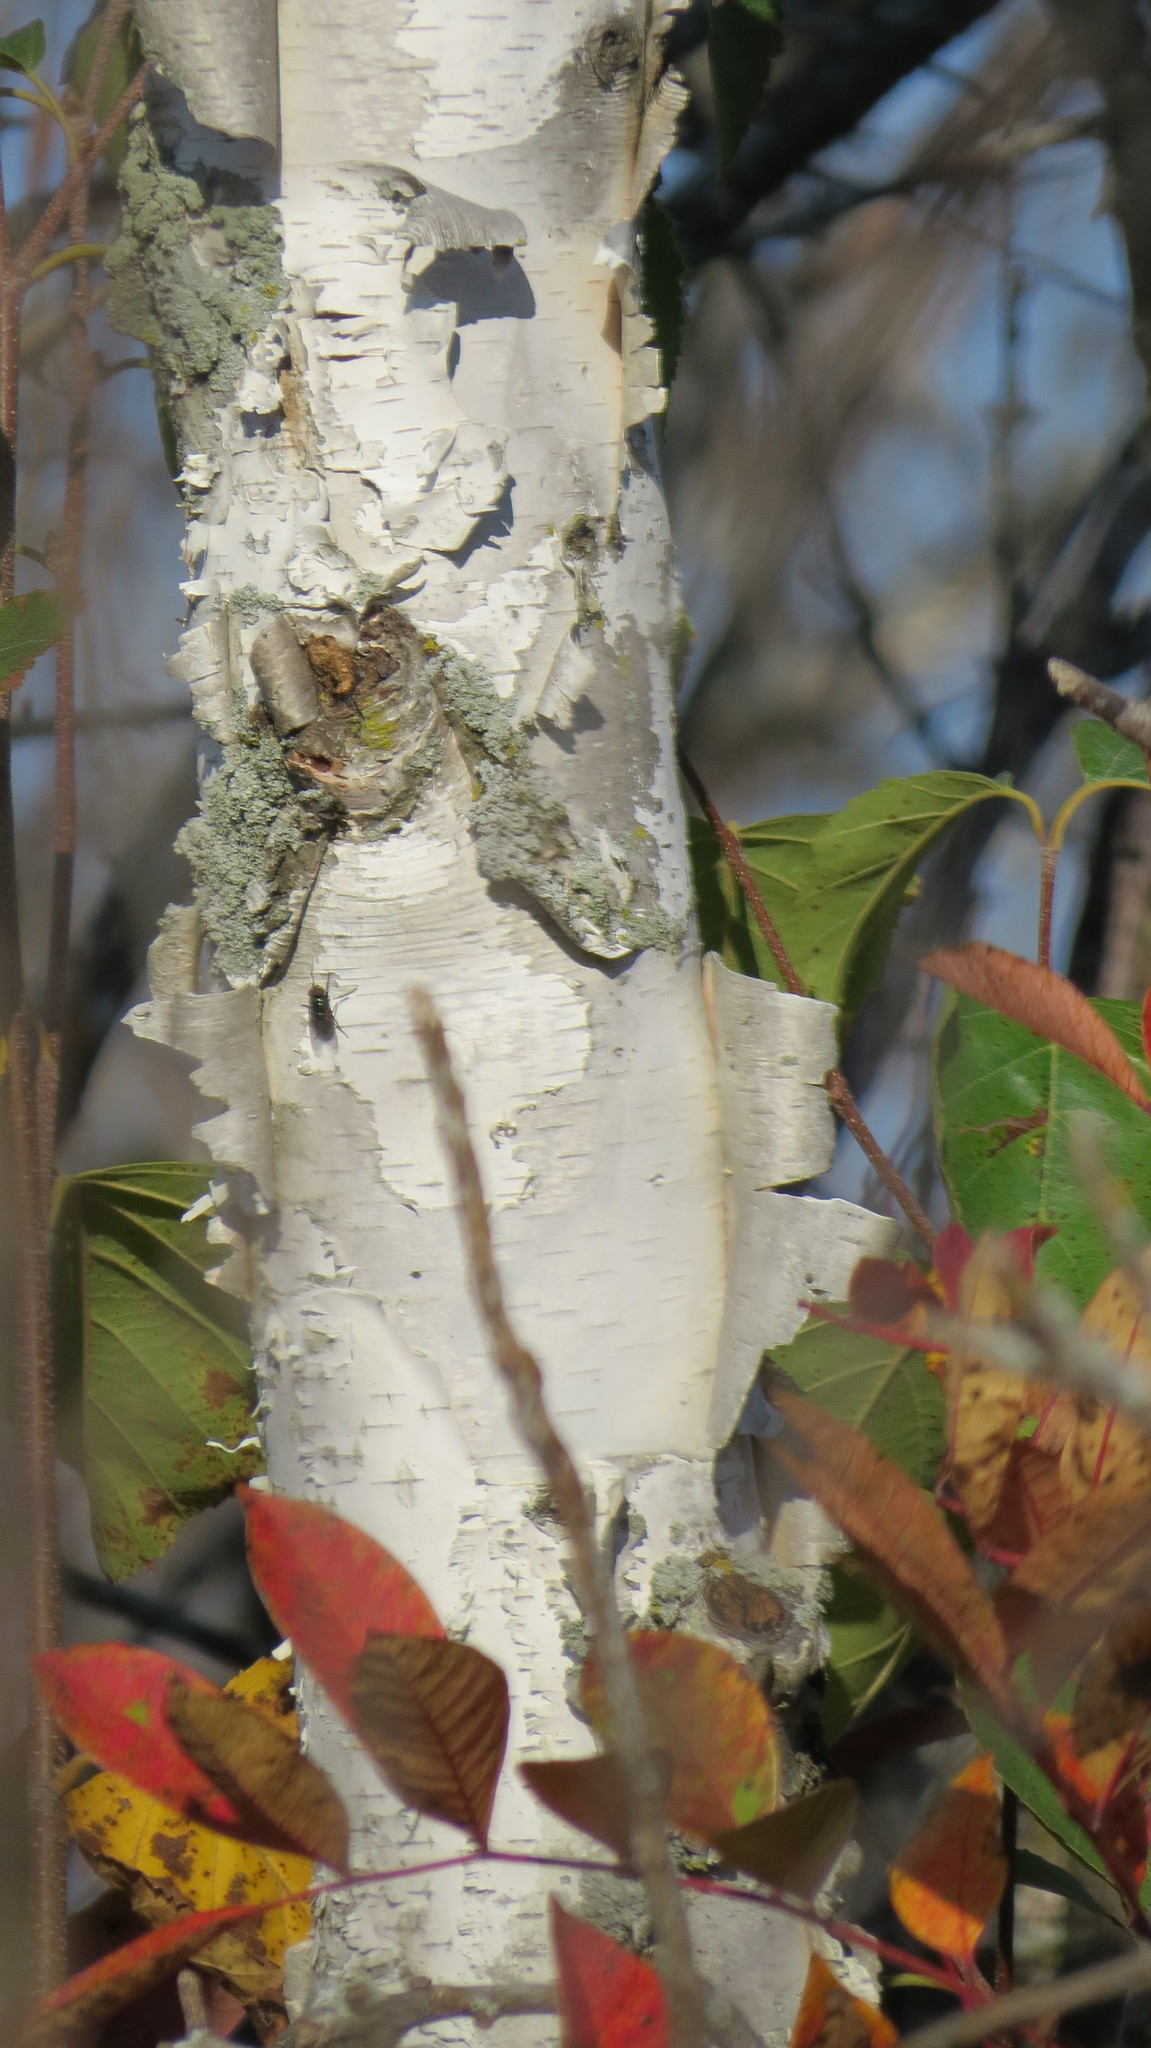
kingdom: Plantae
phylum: Tracheophyta
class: Magnoliopsida
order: Fagales
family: Betulaceae
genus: Betula
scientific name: Betula papyrifera
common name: Paper birch
